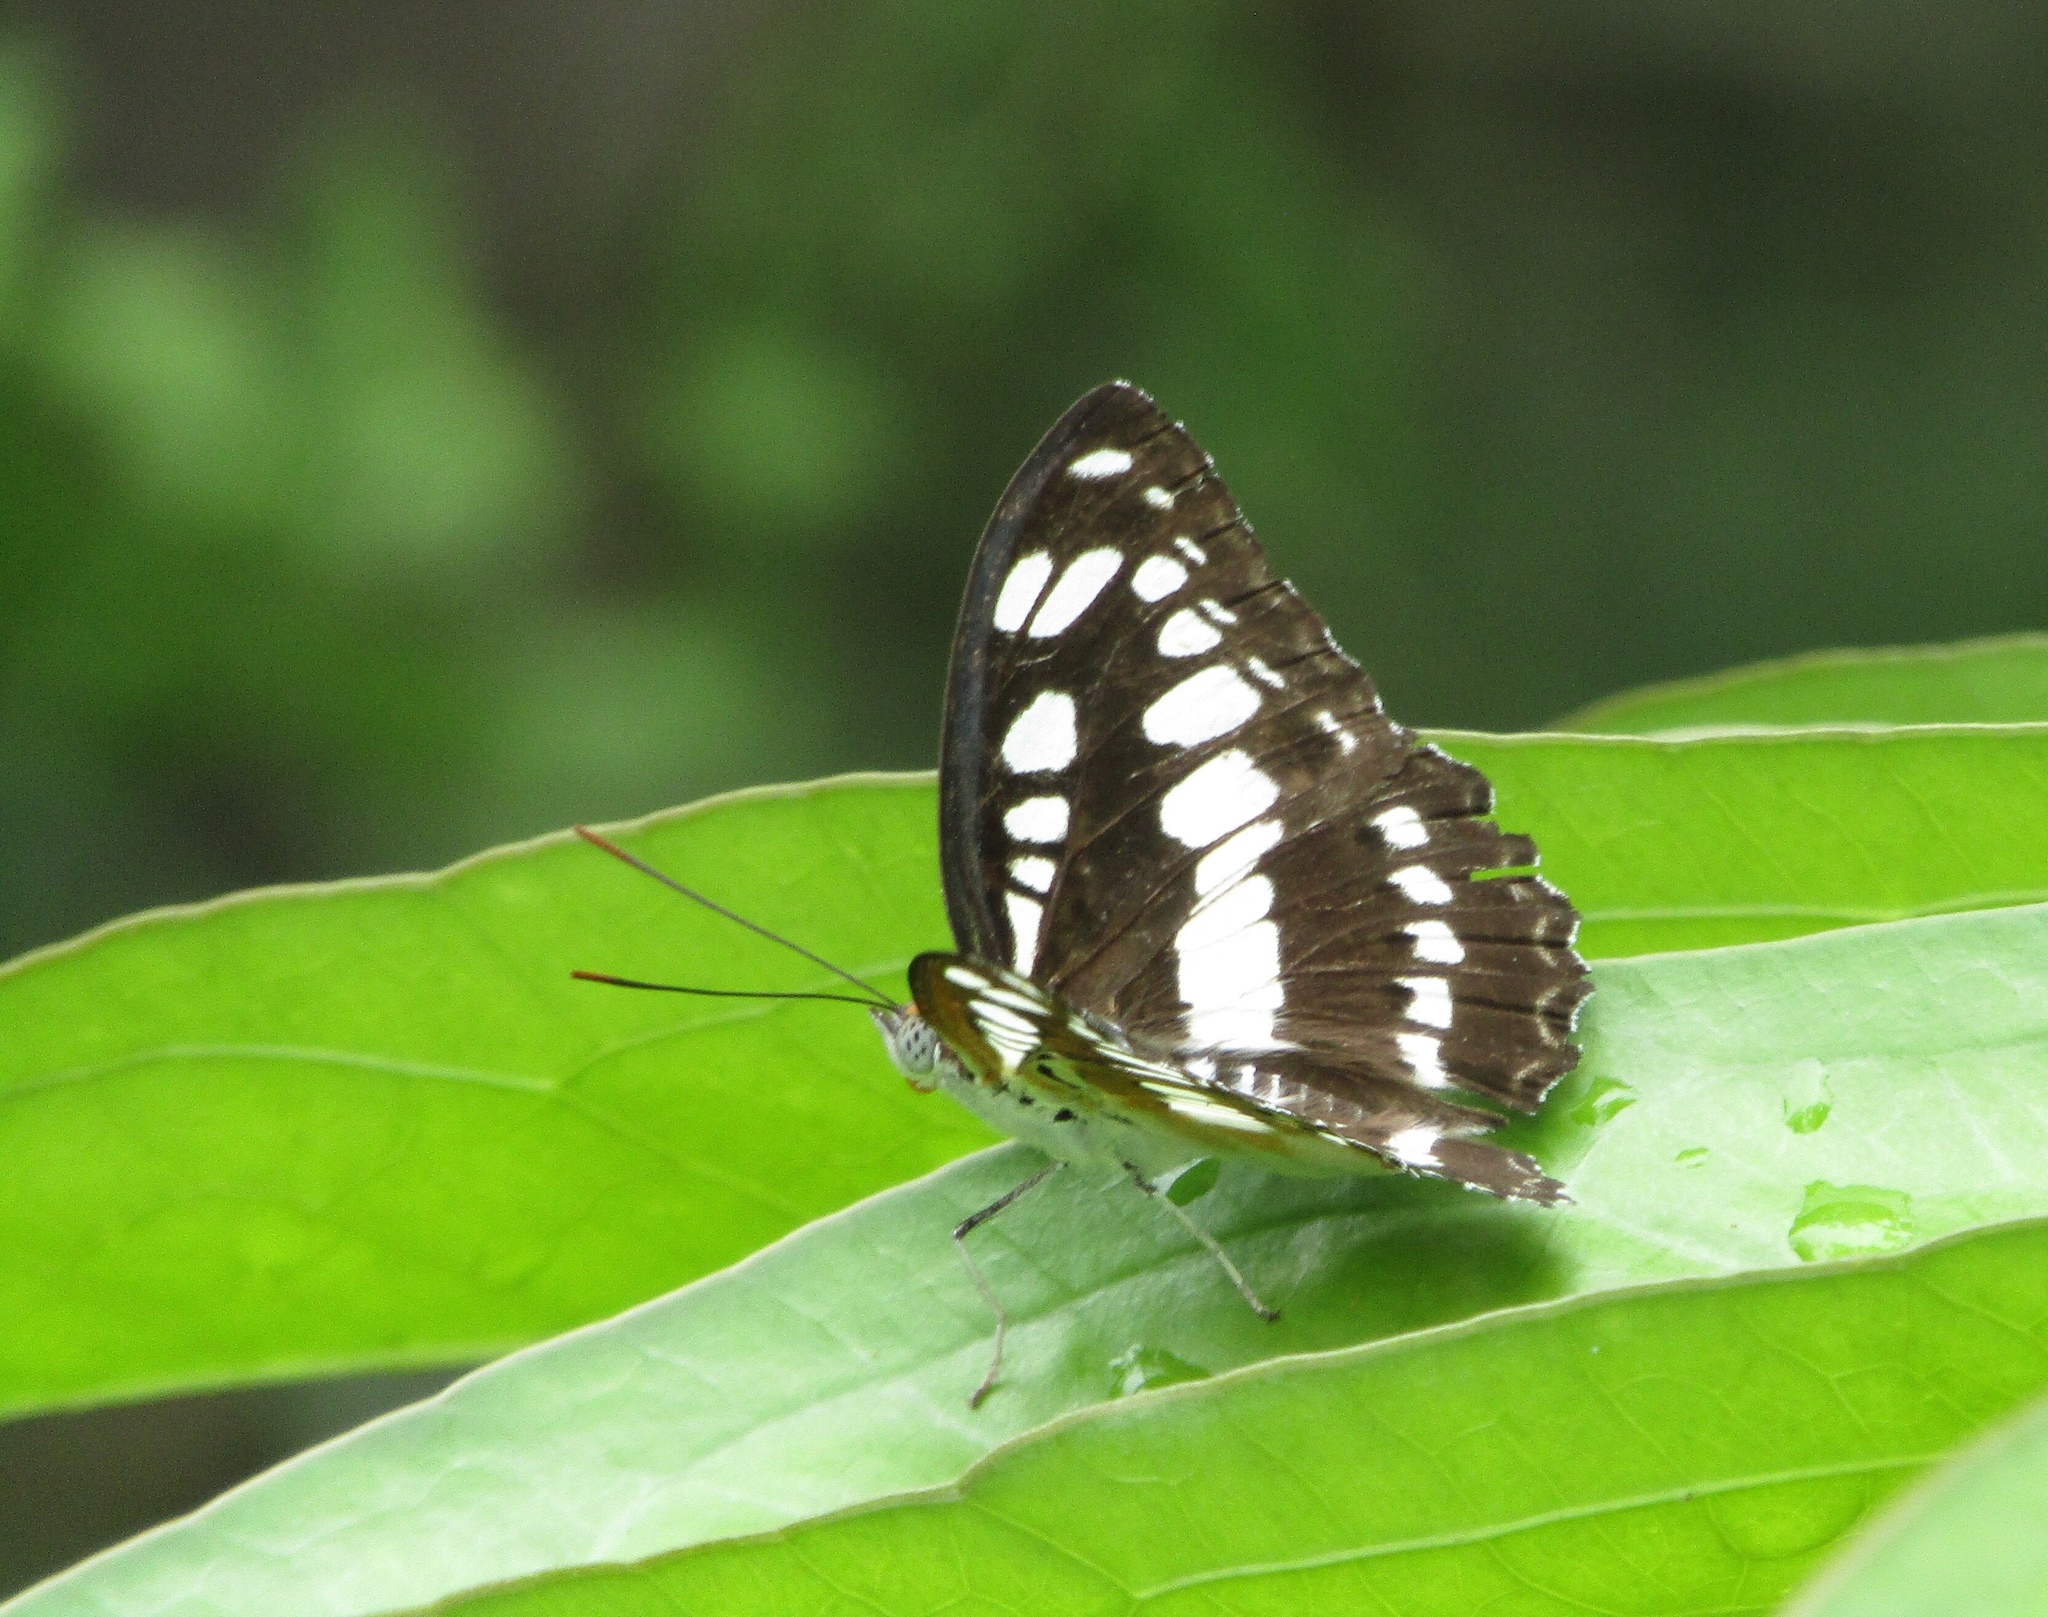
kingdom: Animalia
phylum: Arthropoda
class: Insecta
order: Lepidoptera
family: Nymphalidae
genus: Parathyma
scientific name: Parathyma perius
